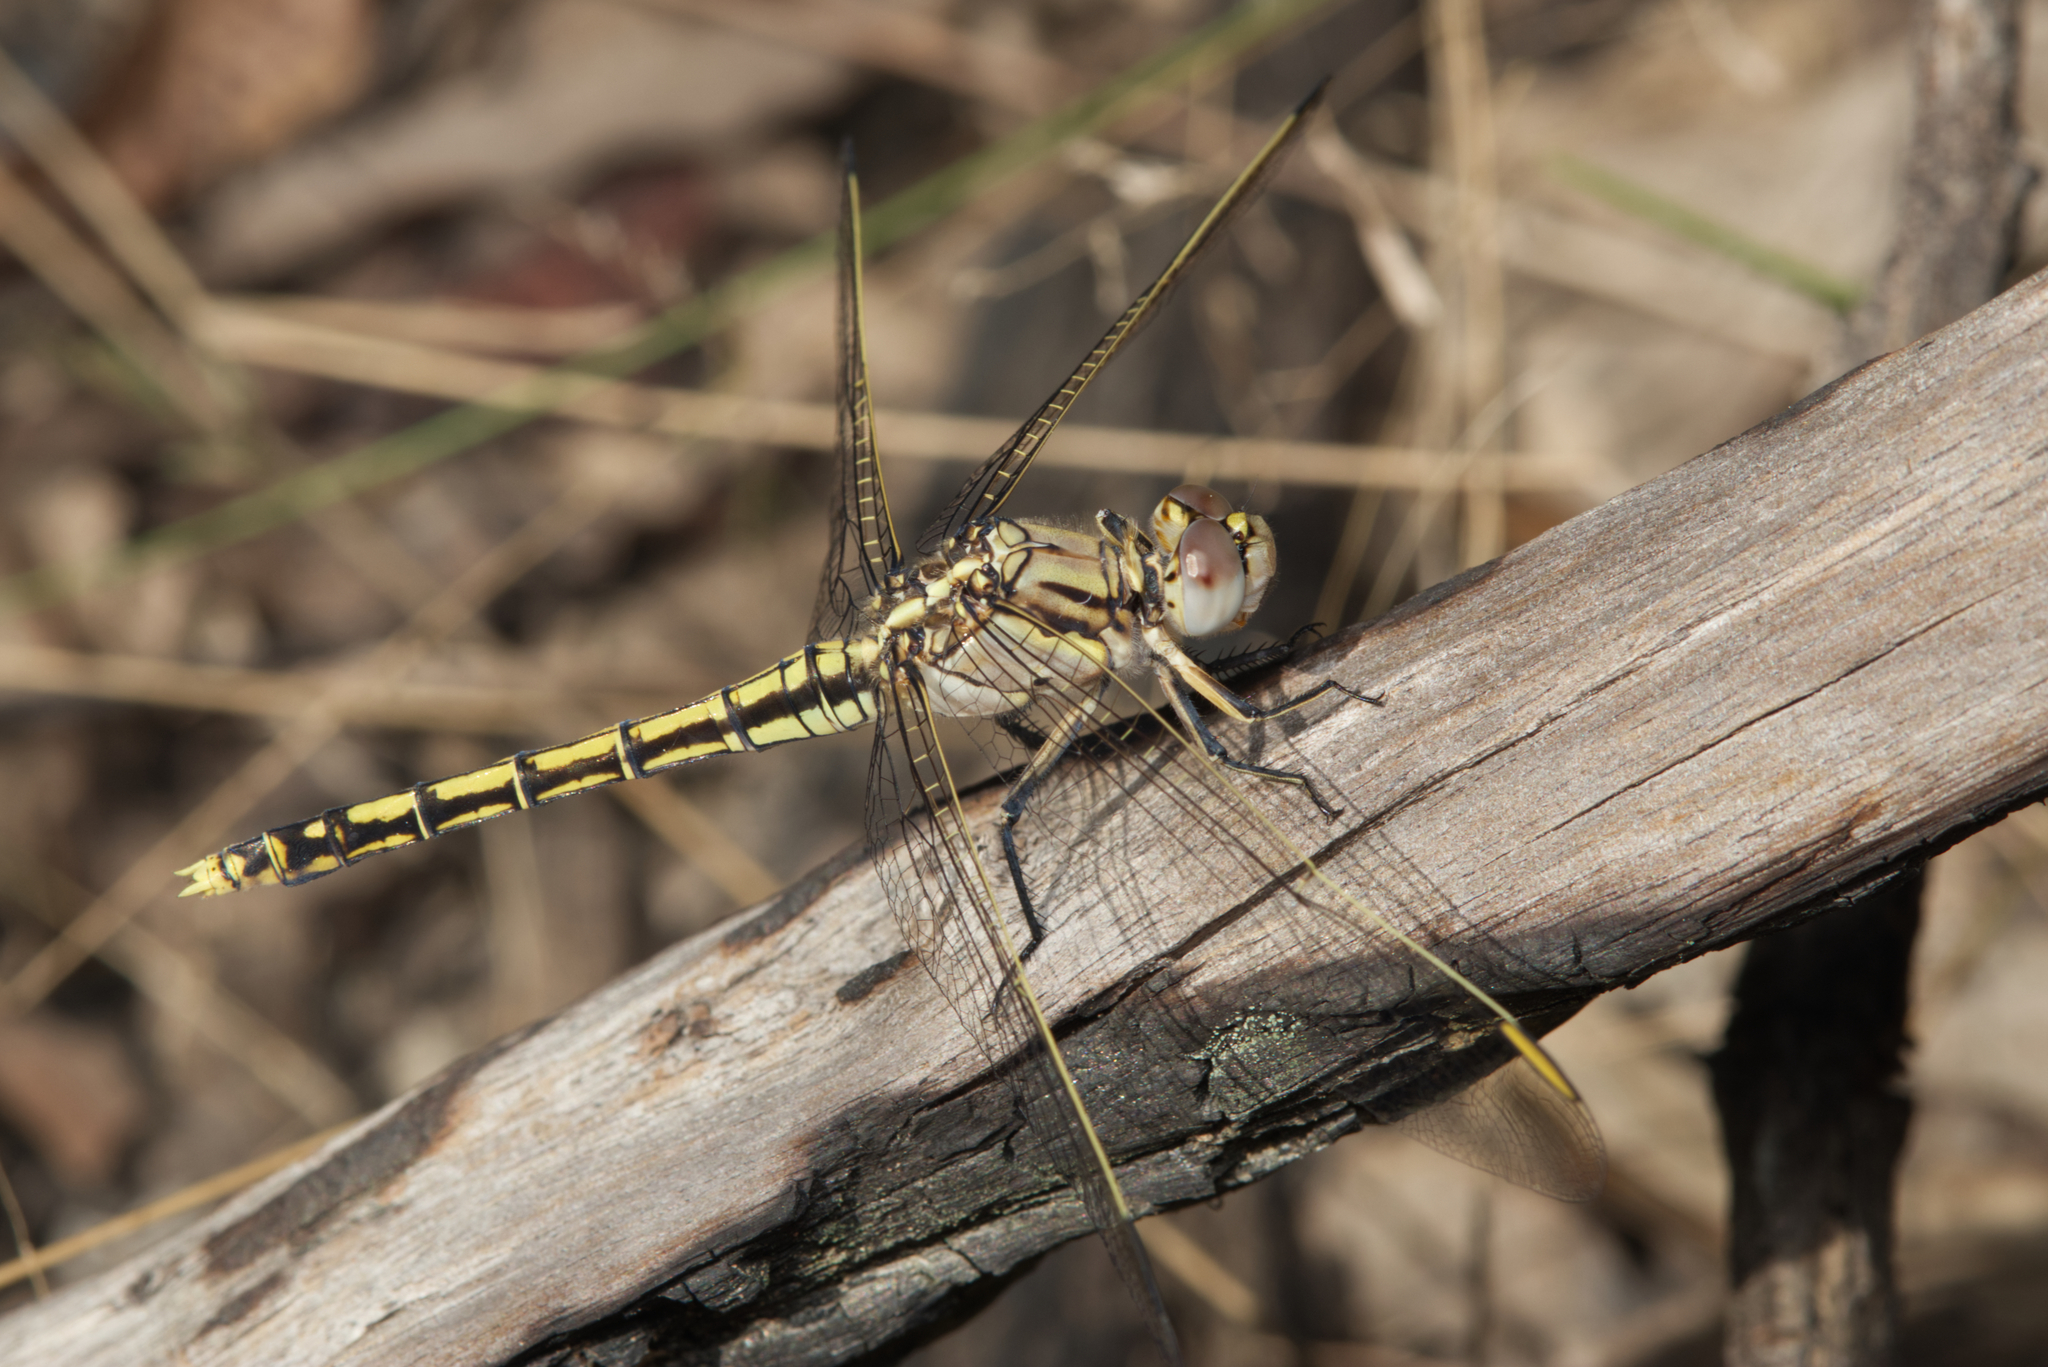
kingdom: Animalia
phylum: Arthropoda
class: Insecta
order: Odonata
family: Libellulidae
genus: Orthetrum
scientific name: Orthetrum caledonicum
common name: Blue skimmer
